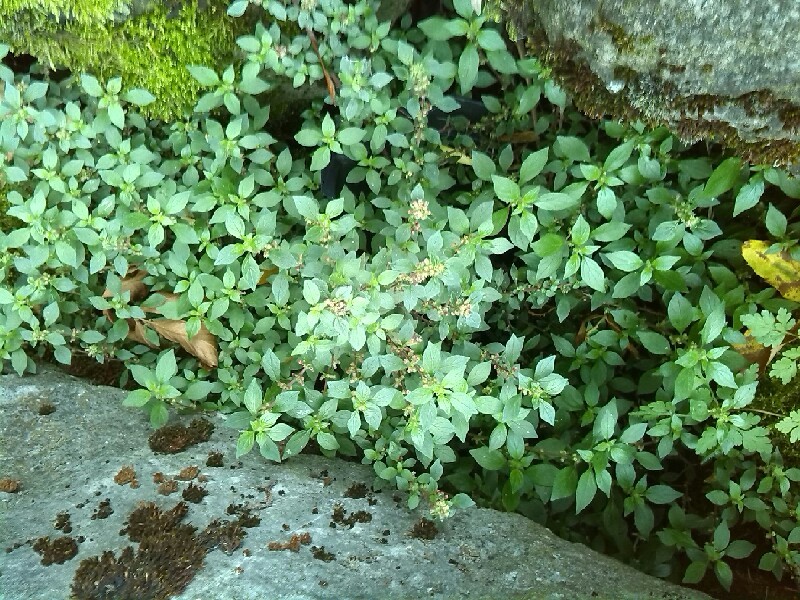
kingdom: Plantae
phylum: Tracheophyta
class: Magnoliopsida
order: Rosales
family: Urticaceae
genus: Parietaria
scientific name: Parietaria judaica
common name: Pellitory-of-the-wall
